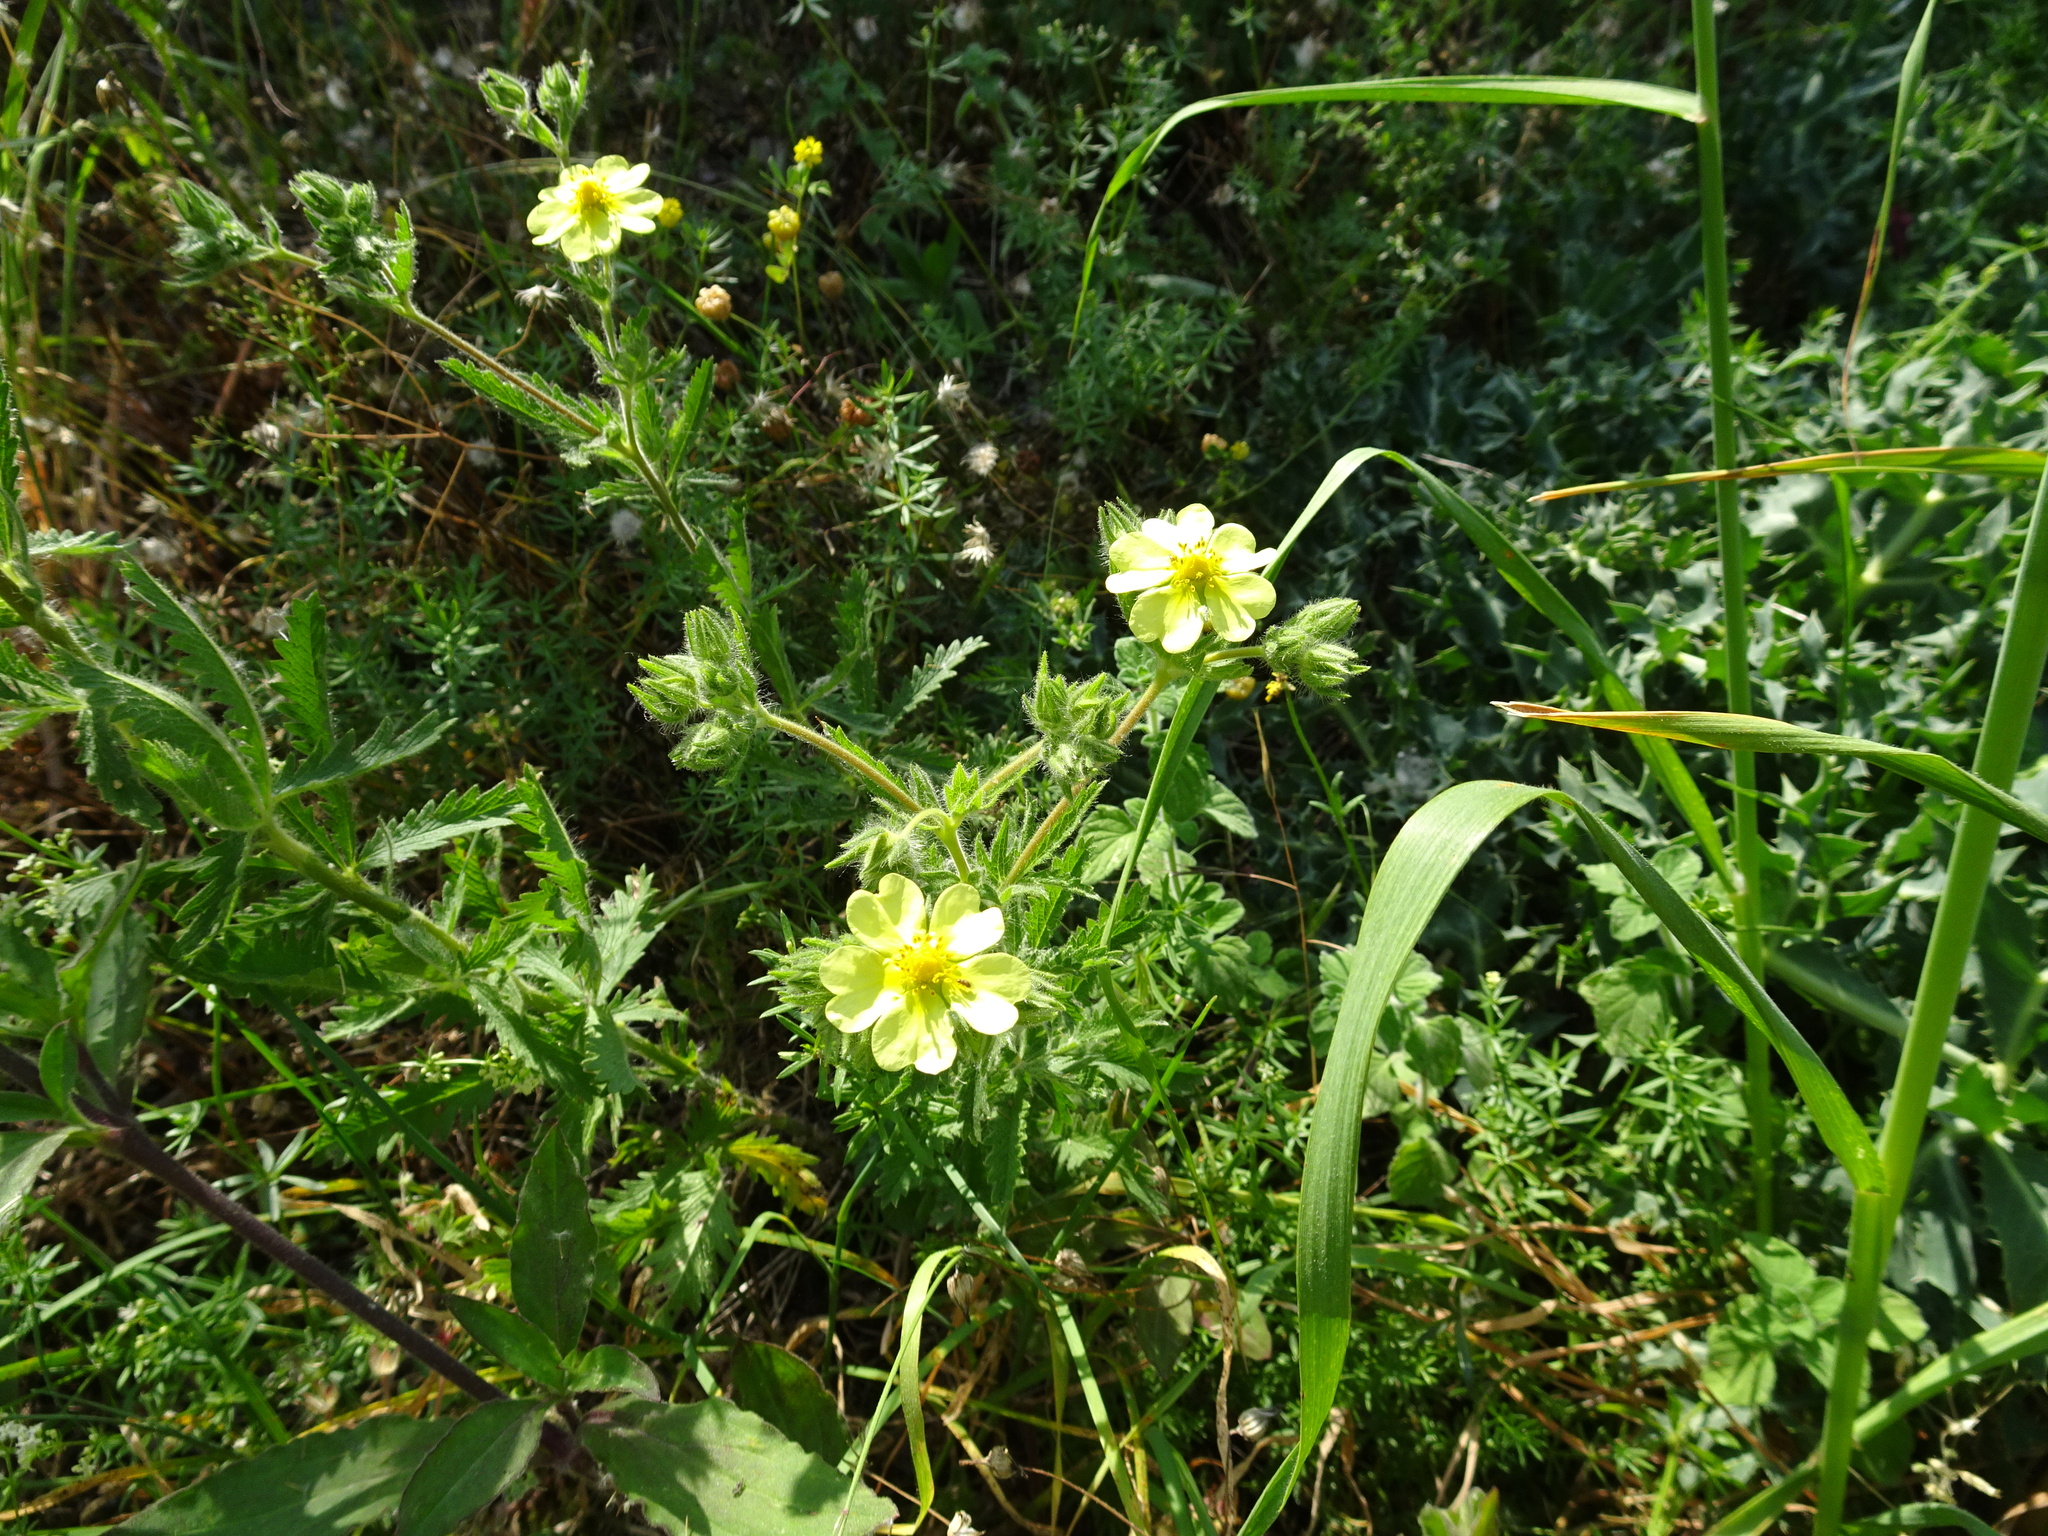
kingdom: Plantae
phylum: Tracheophyta
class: Magnoliopsida
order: Rosales
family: Rosaceae
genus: Potentilla
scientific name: Potentilla recta
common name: Sulphur cinquefoil
